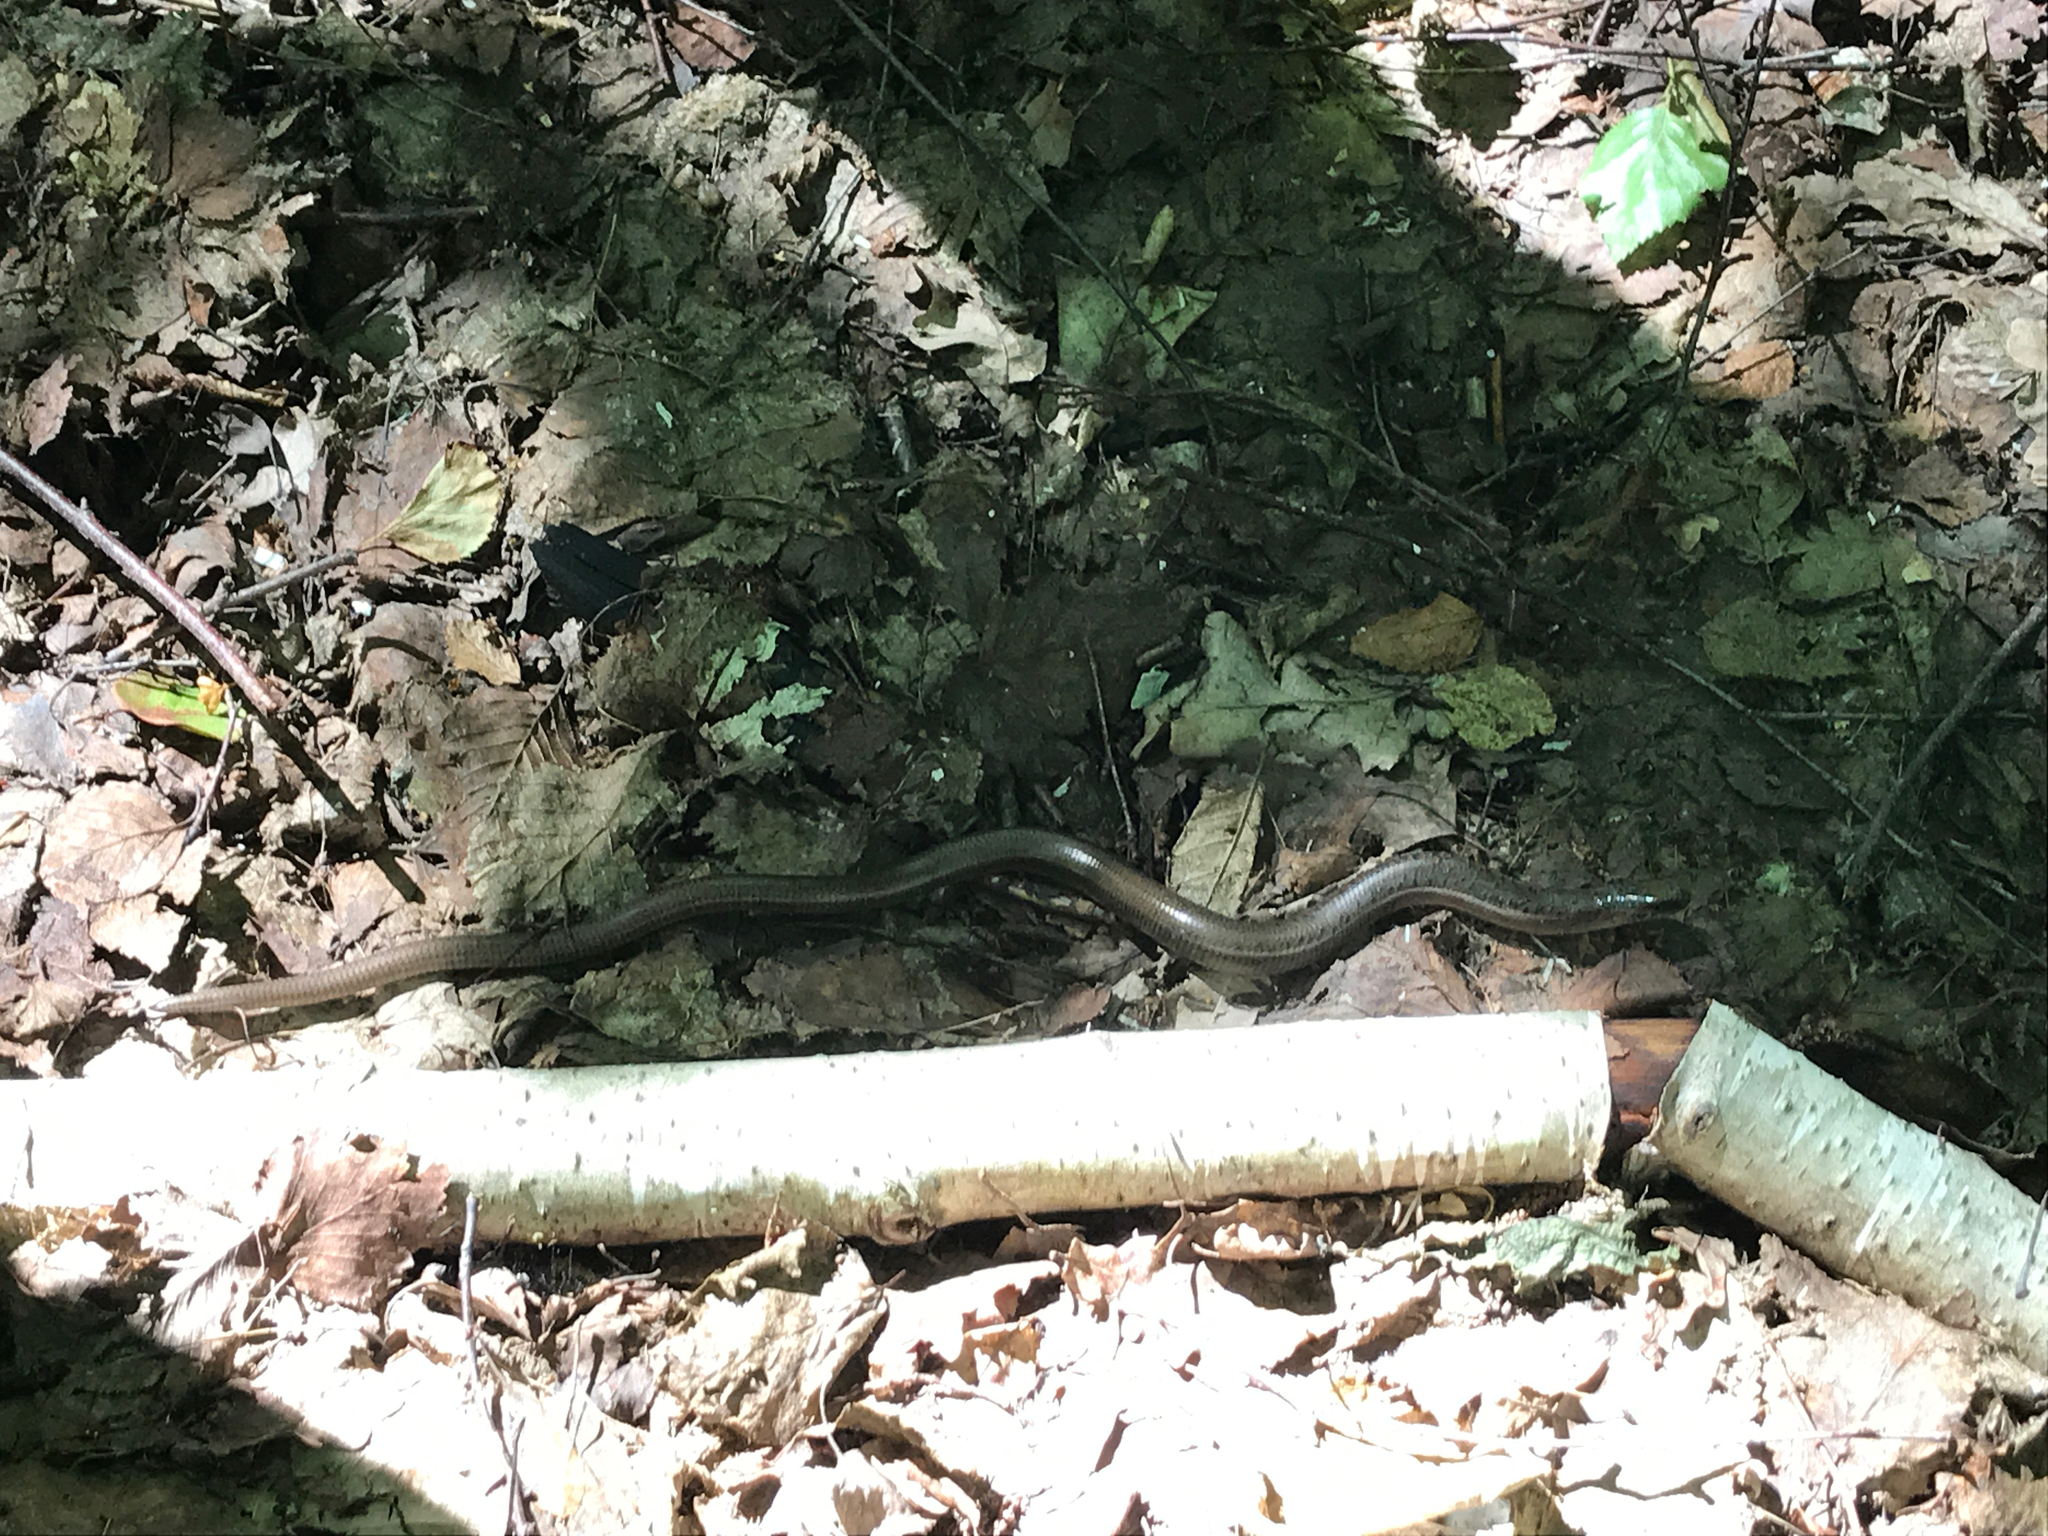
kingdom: Animalia
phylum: Chordata
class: Squamata
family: Anguidae
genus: Anguis
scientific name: Anguis colchica
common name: Slow worm
